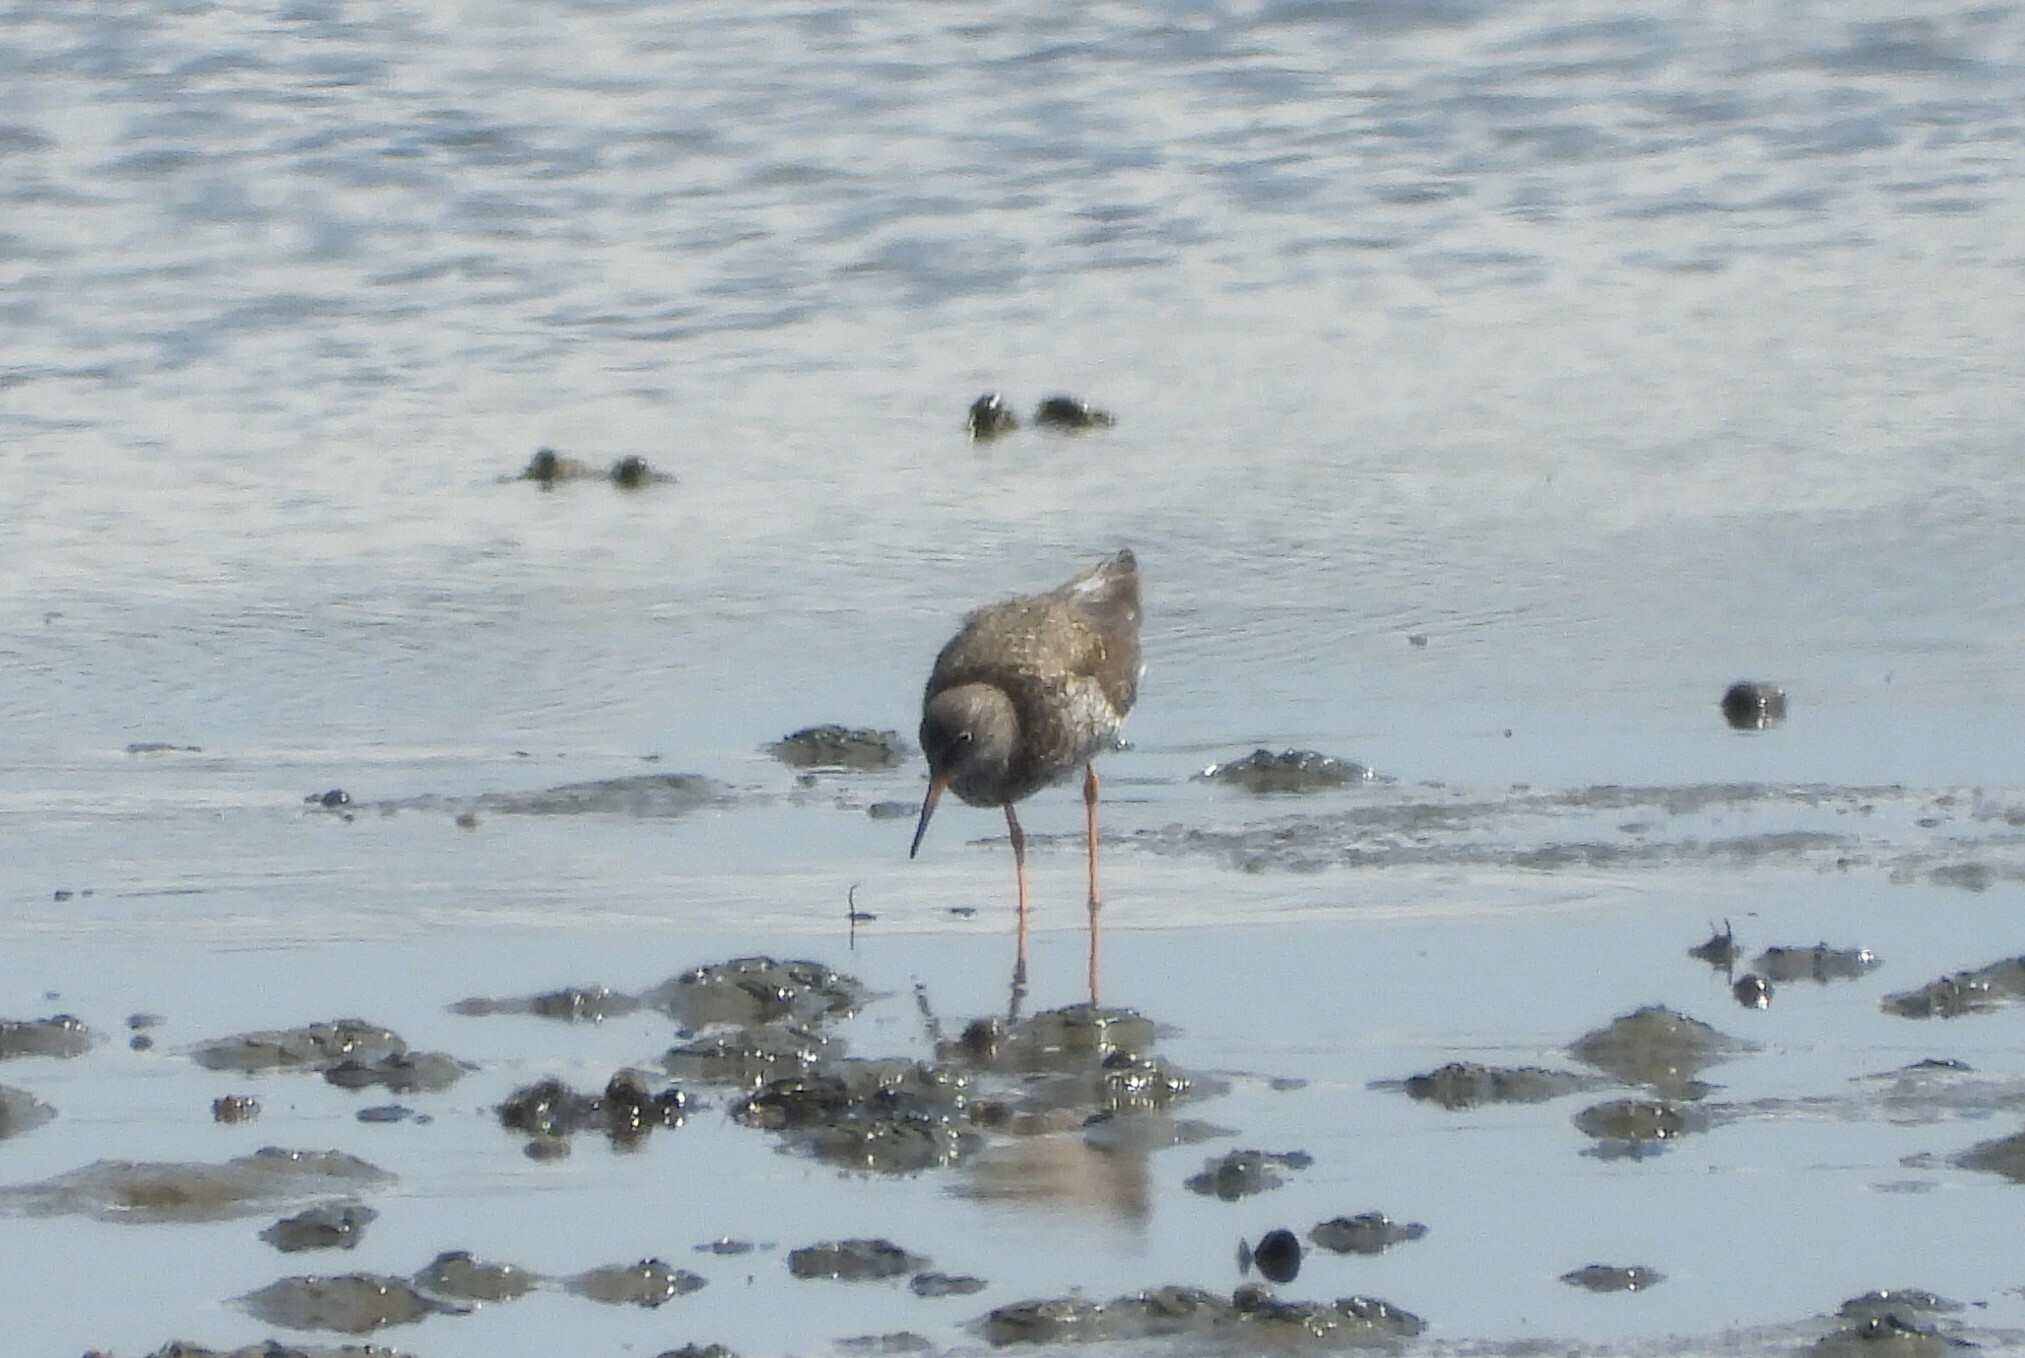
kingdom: Animalia
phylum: Chordata
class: Aves
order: Charadriiformes
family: Scolopacidae
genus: Tringa
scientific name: Tringa totanus
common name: Common redshank
